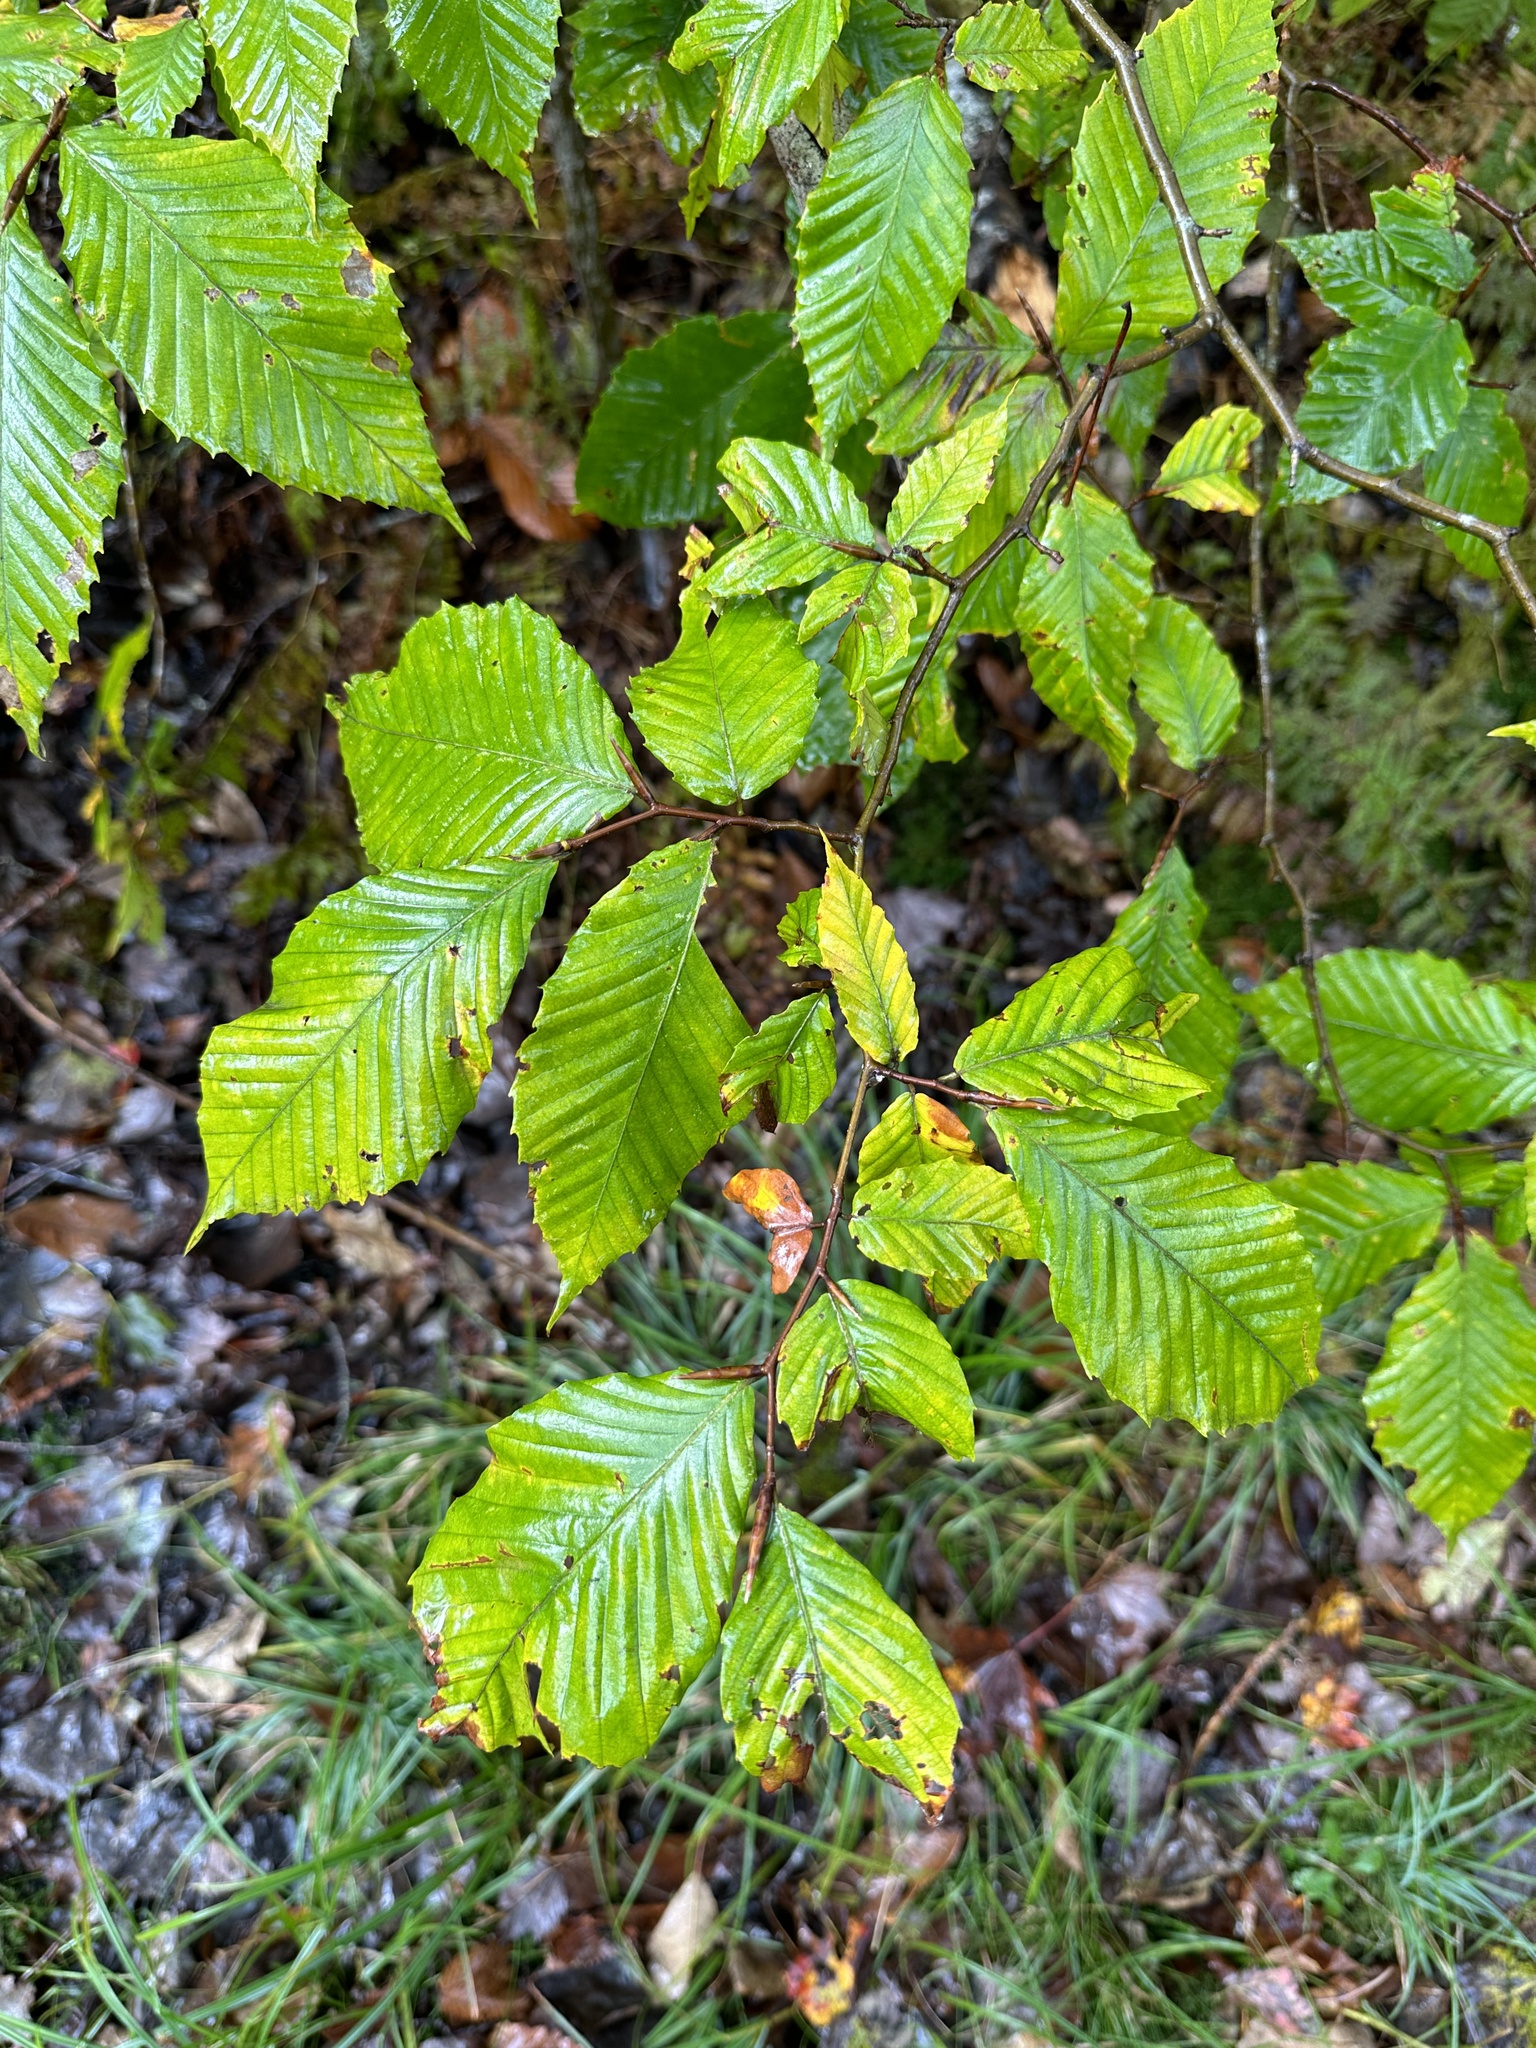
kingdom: Plantae
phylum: Tracheophyta
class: Magnoliopsida
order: Fagales
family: Fagaceae
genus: Fagus
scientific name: Fagus grandifolia
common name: American beech
